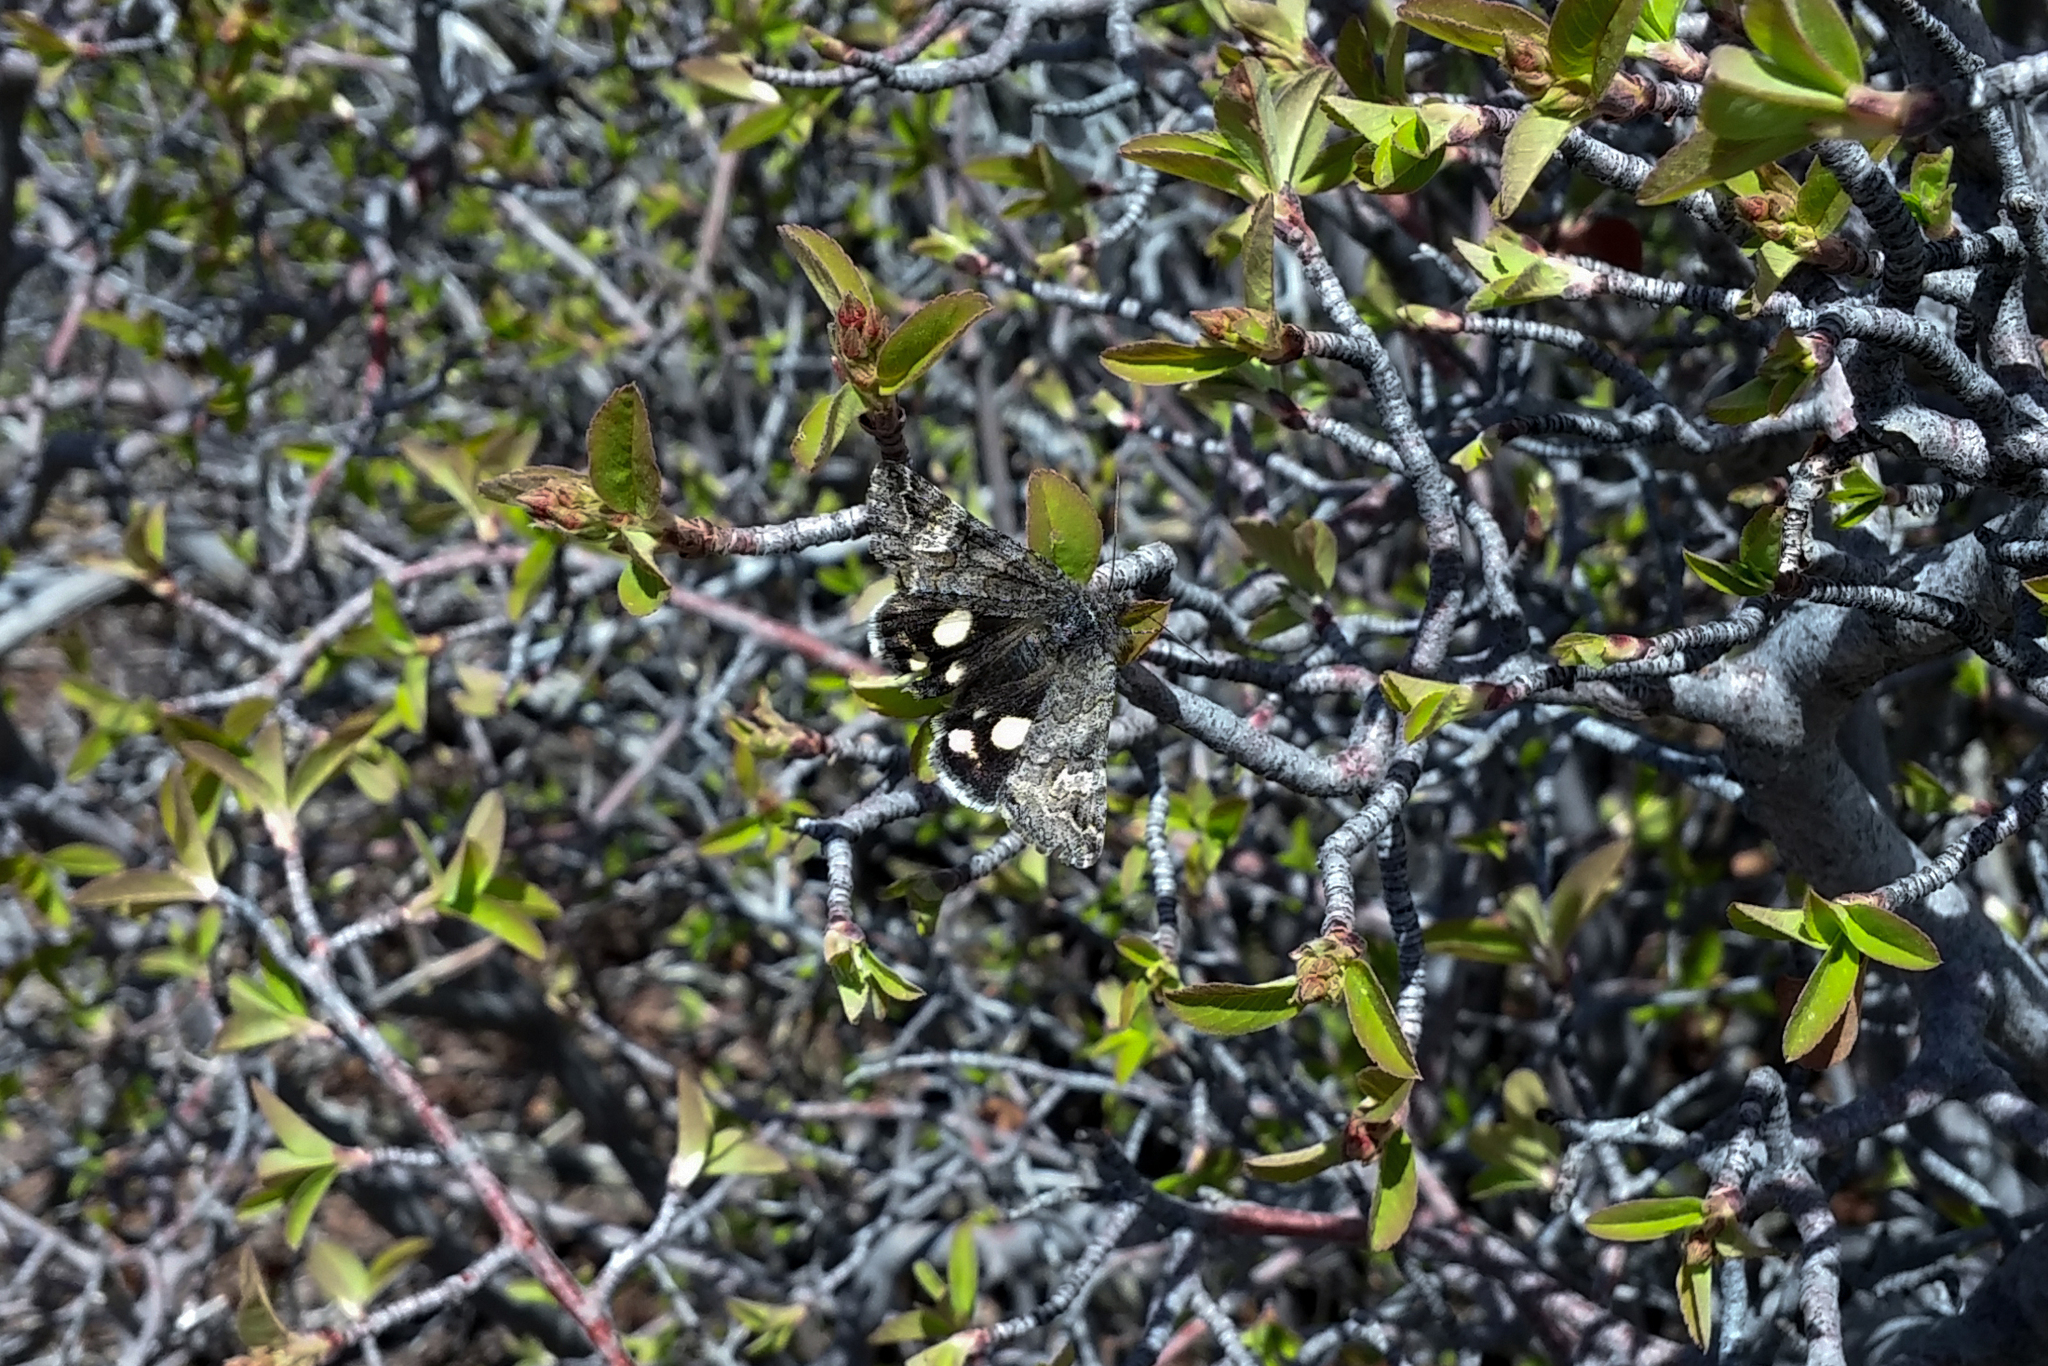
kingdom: Animalia
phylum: Arthropoda
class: Insecta
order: Lepidoptera
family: Erebidae
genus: Litocala
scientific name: Litocala sexsignata
